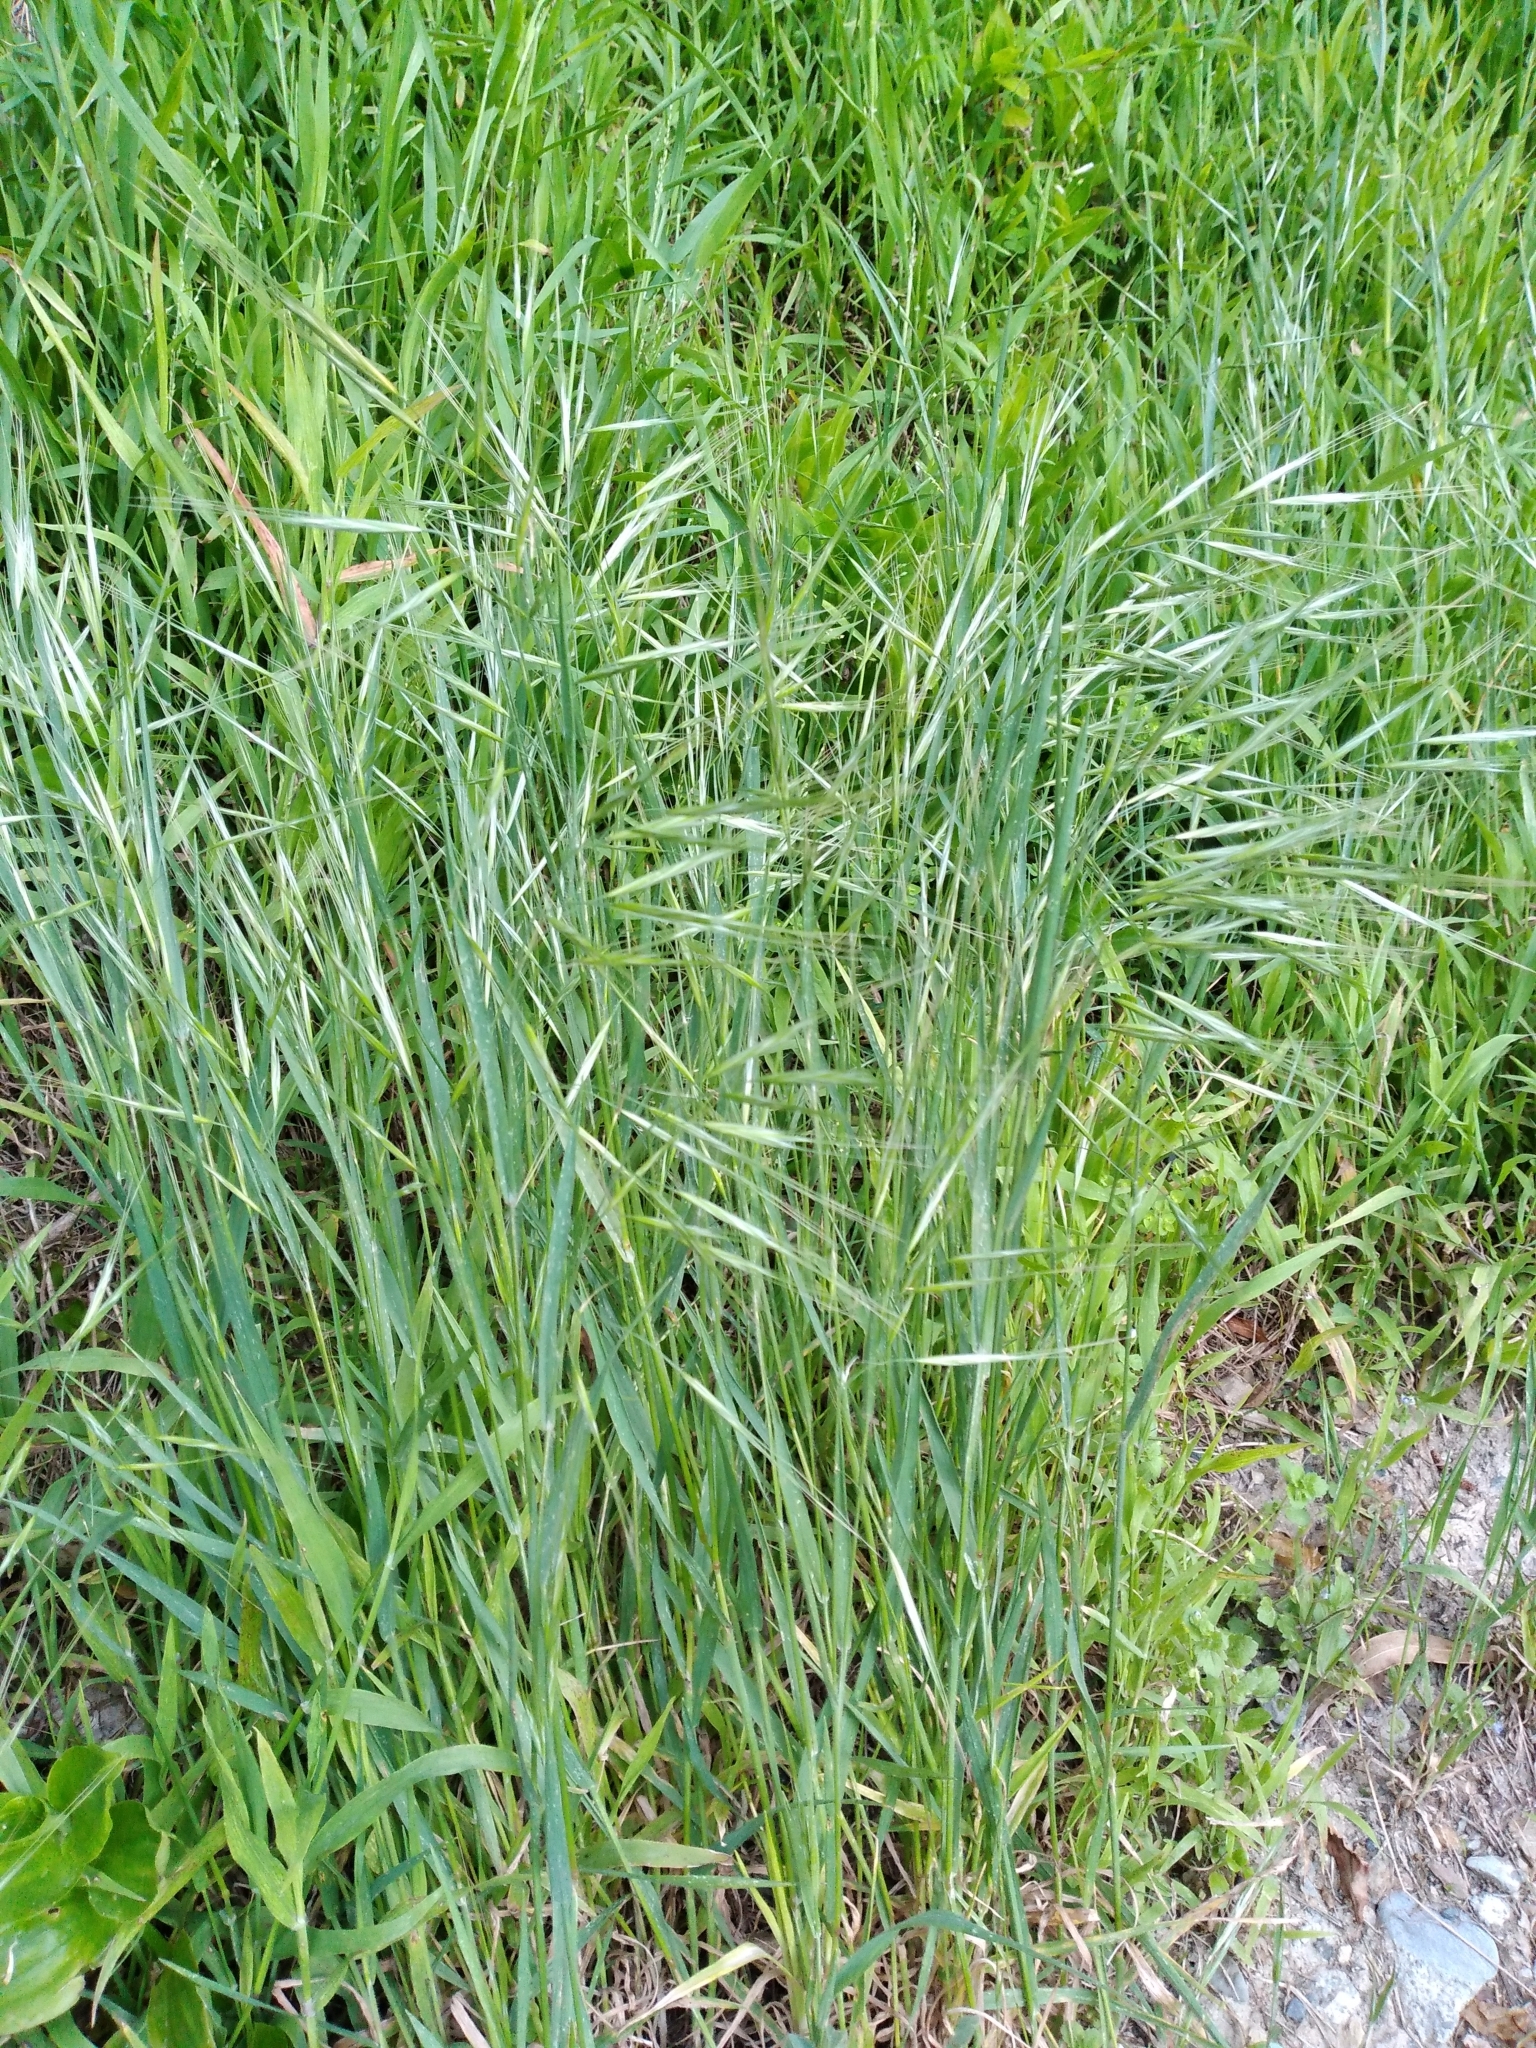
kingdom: Plantae
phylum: Tracheophyta
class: Liliopsida
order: Poales
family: Poaceae
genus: Bromus
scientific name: Bromus diandrus
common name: Ripgut brome
